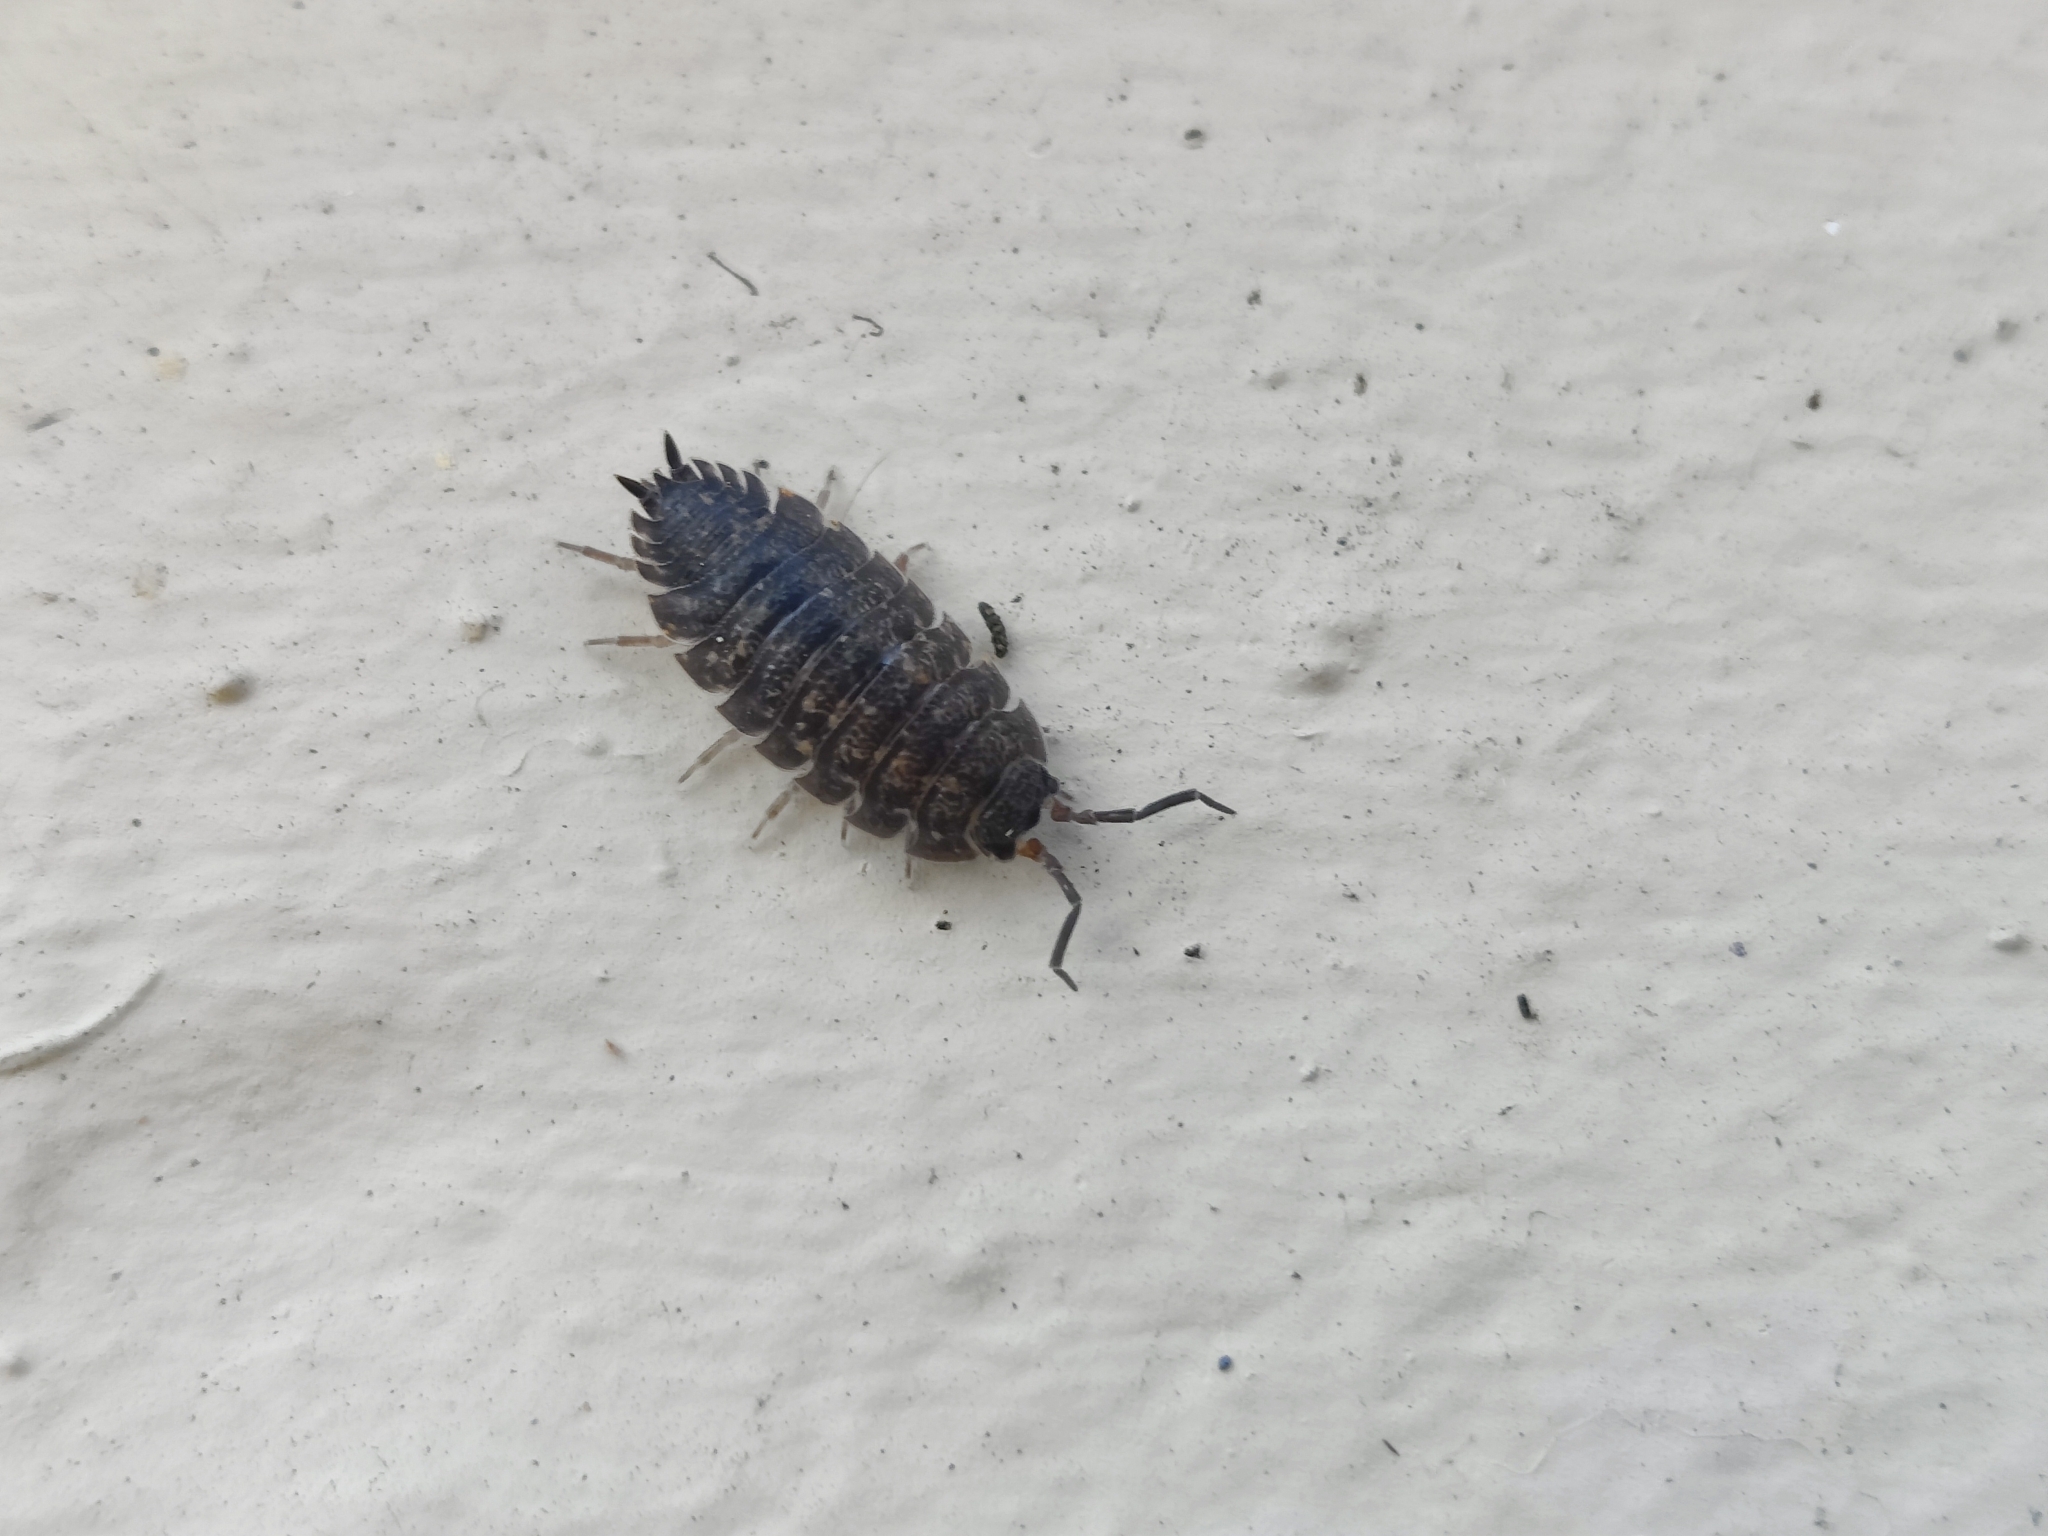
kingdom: Animalia
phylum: Arthropoda
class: Malacostraca
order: Isopoda
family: Porcellionidae
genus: Porcellio
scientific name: Porcellio scaber
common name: Common rough woodlouse
